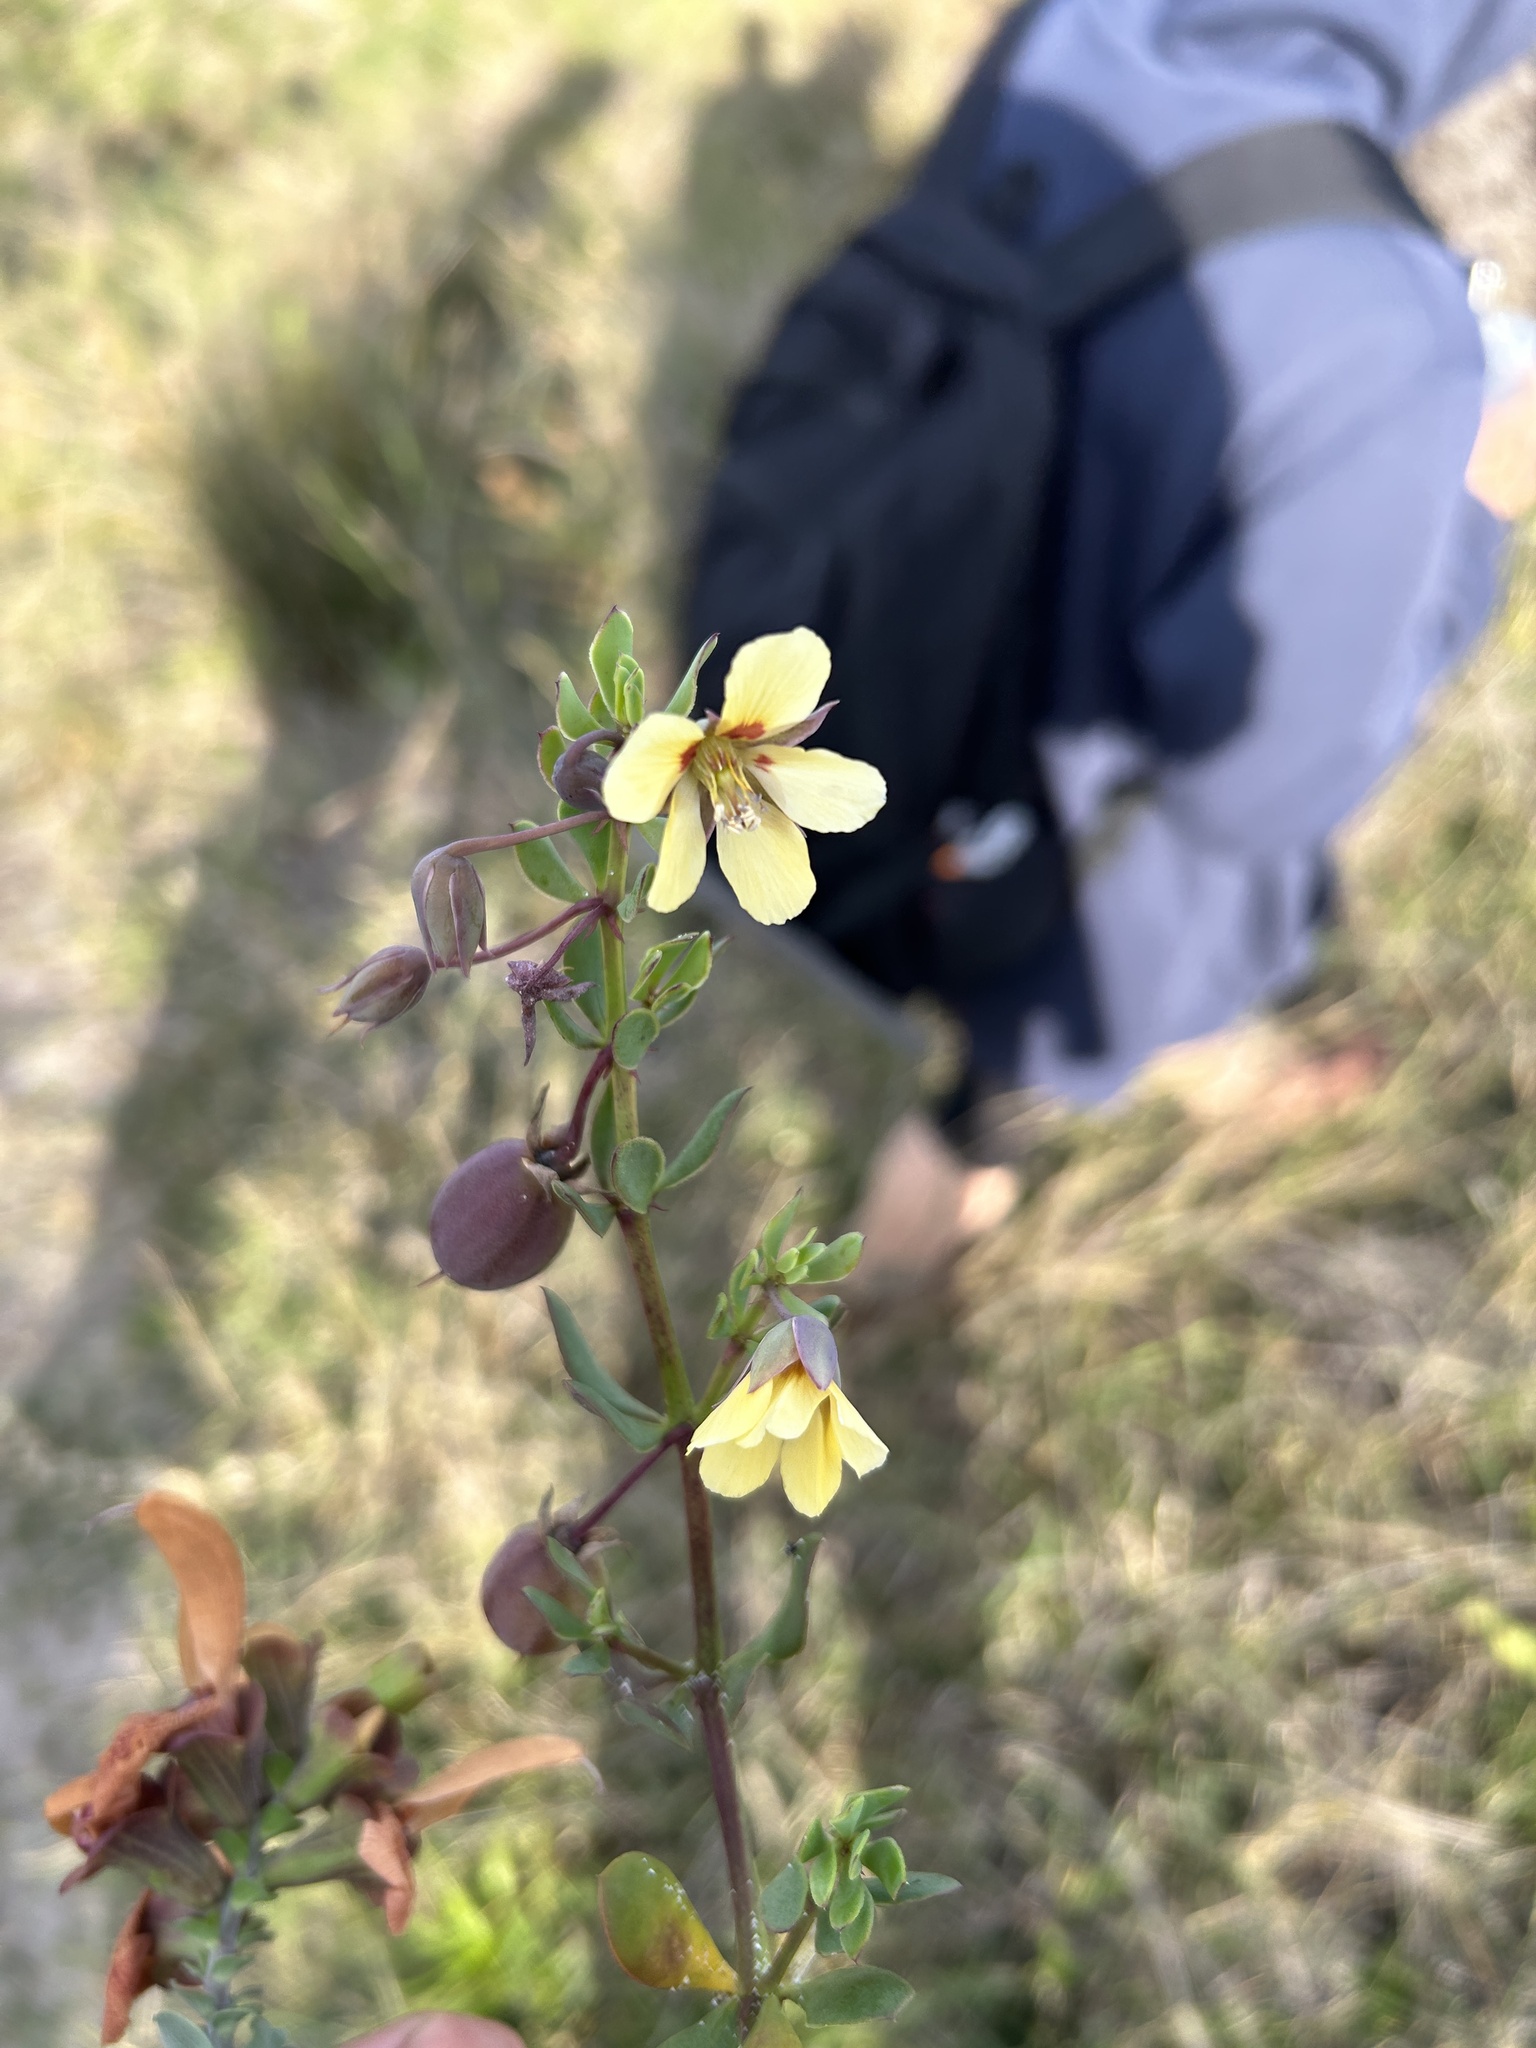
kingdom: Plantae
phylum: Tracheophyta
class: Magnoliopsida
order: Zygophyllales
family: Zygophyllaceae
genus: Roepera
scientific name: Roepera flexuosa
